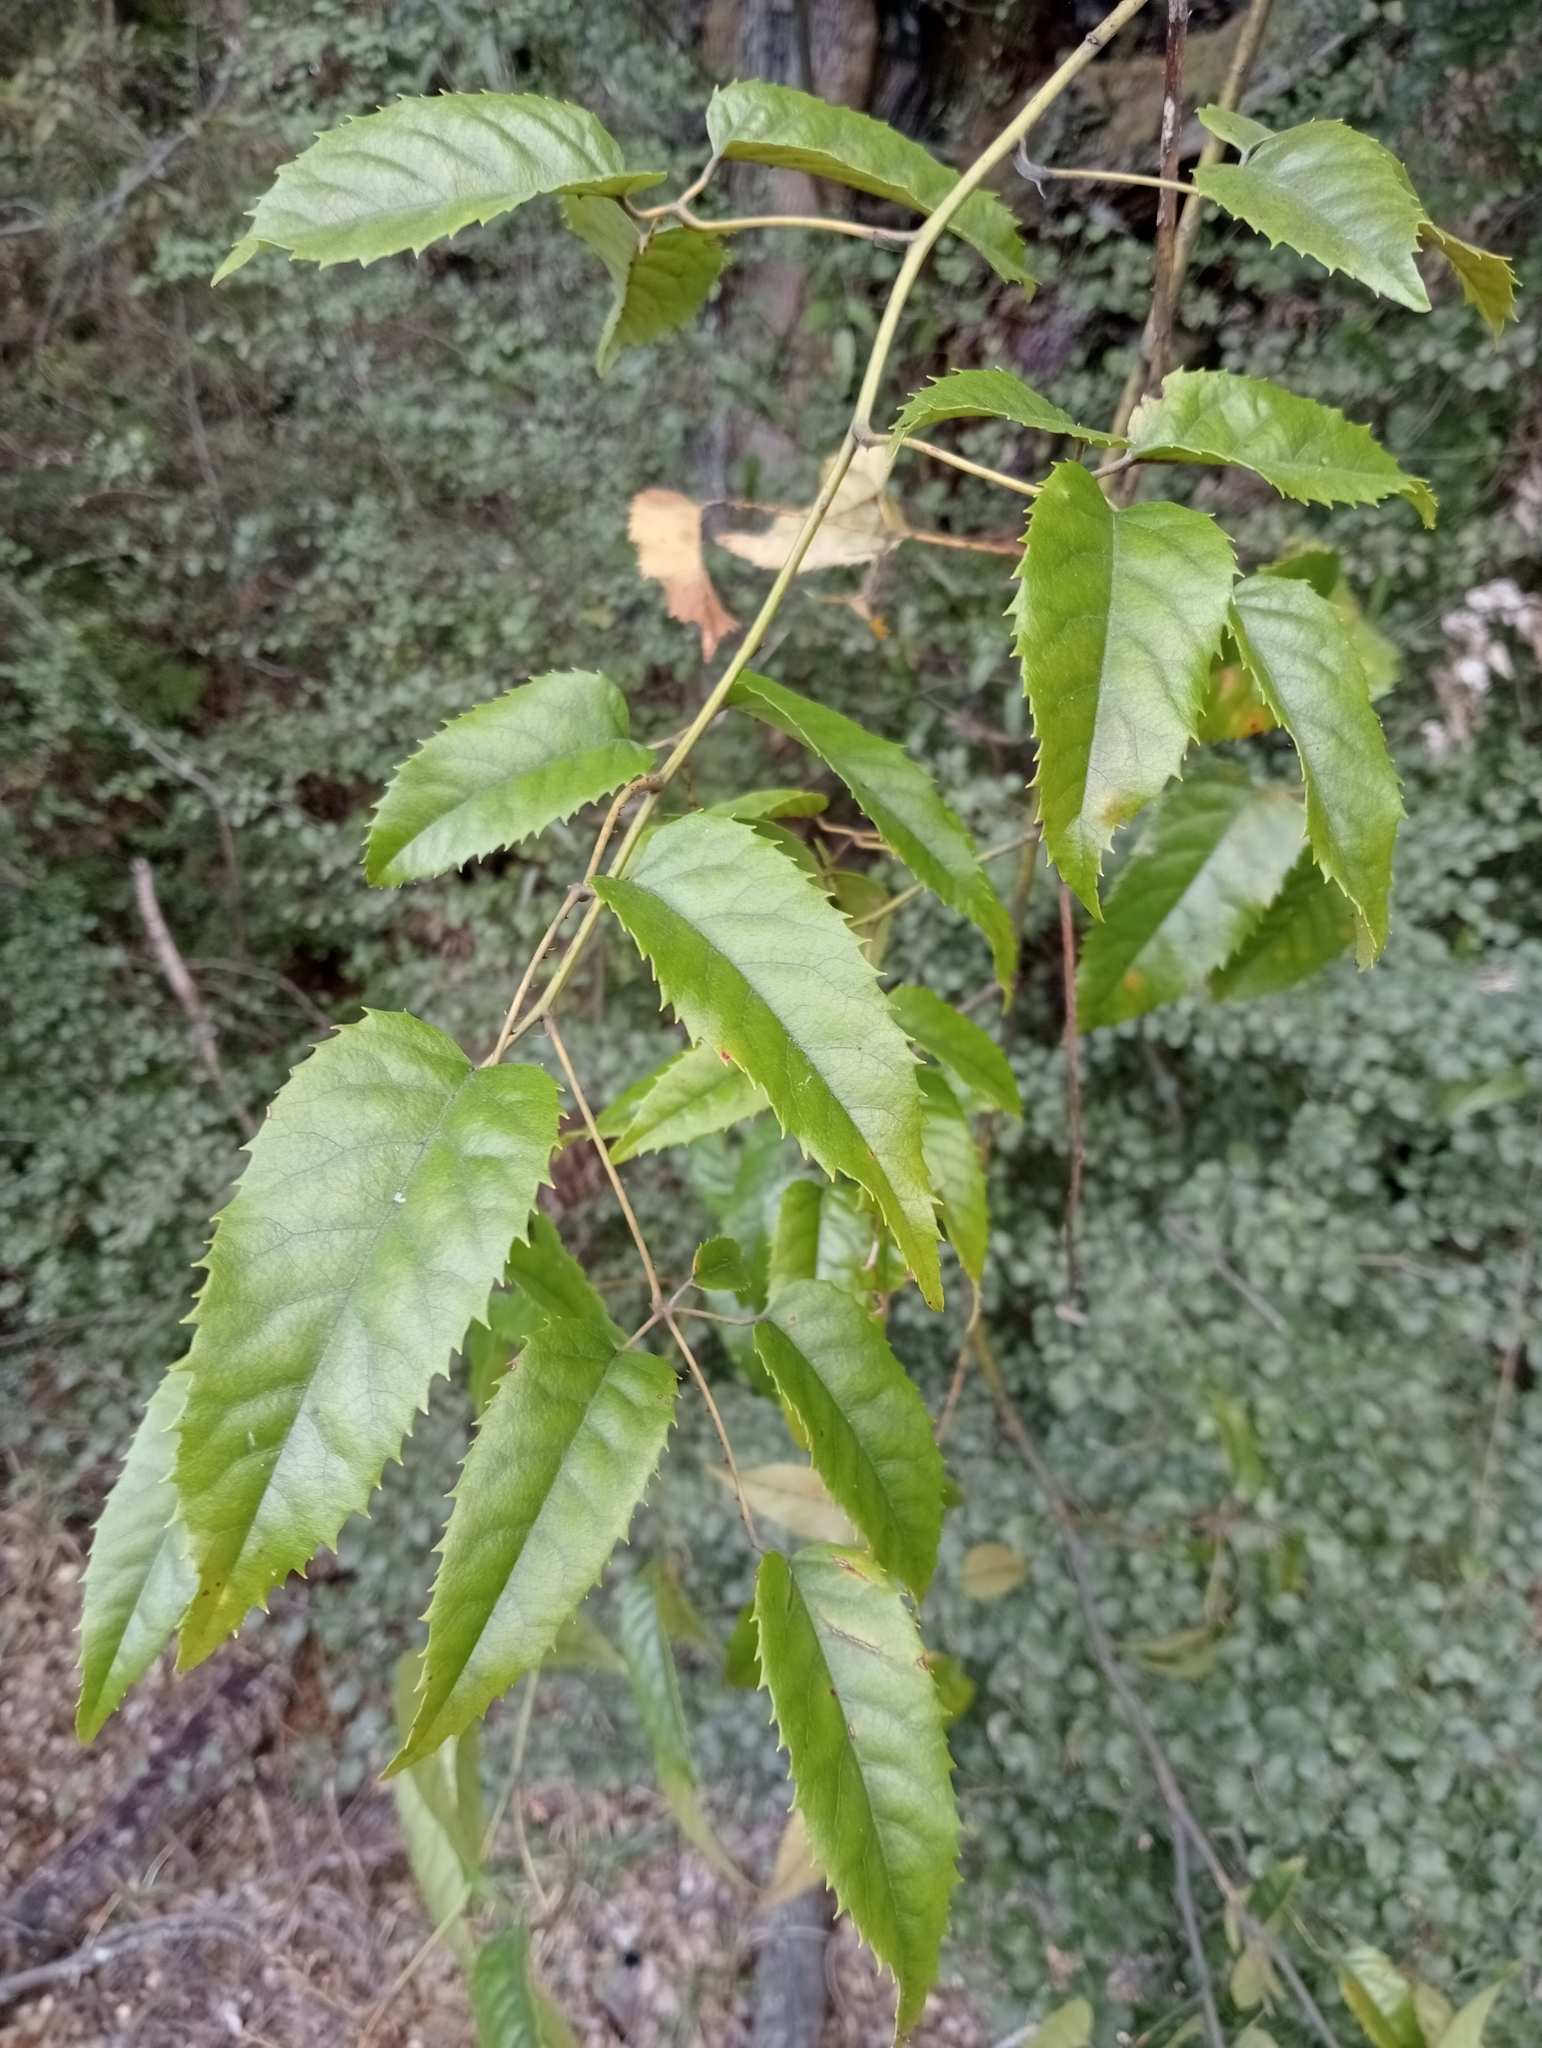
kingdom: Plantae
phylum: Tracheophyta
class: Magnoliopsida
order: Rosales
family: Rosaceae
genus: Rubus
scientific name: Rubus cissoides
